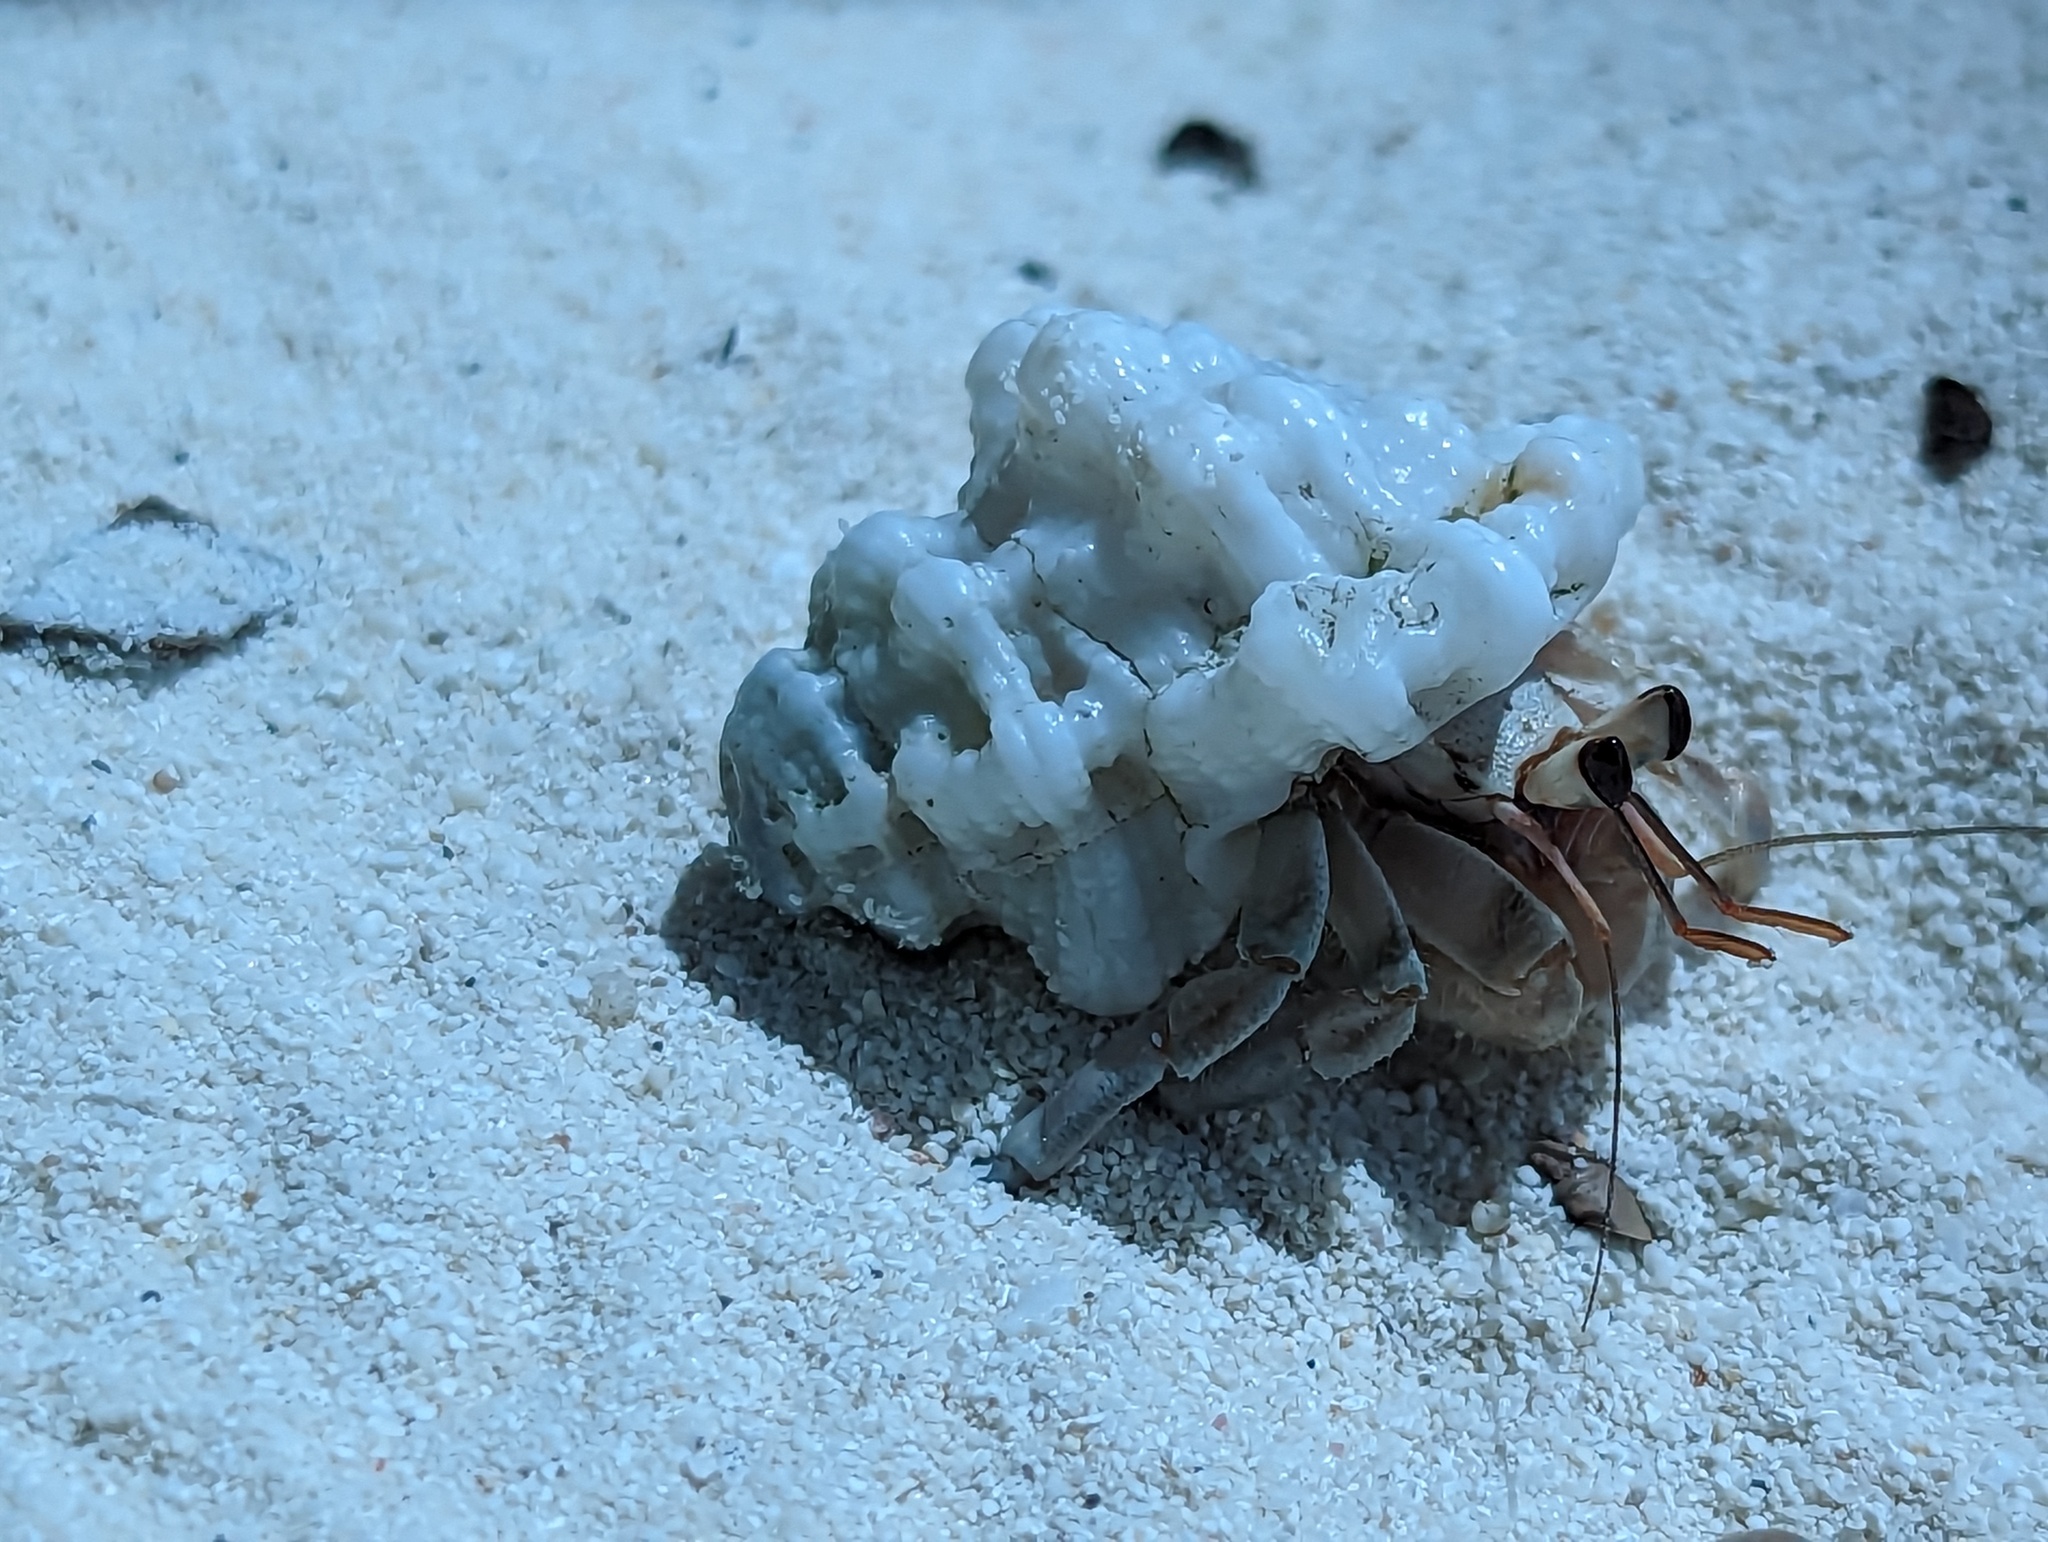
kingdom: Animalia
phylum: Arthropoda
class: Malacostraca
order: Decapoda
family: Coenobitidae
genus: Coenobita
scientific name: Coenobita rugosus
